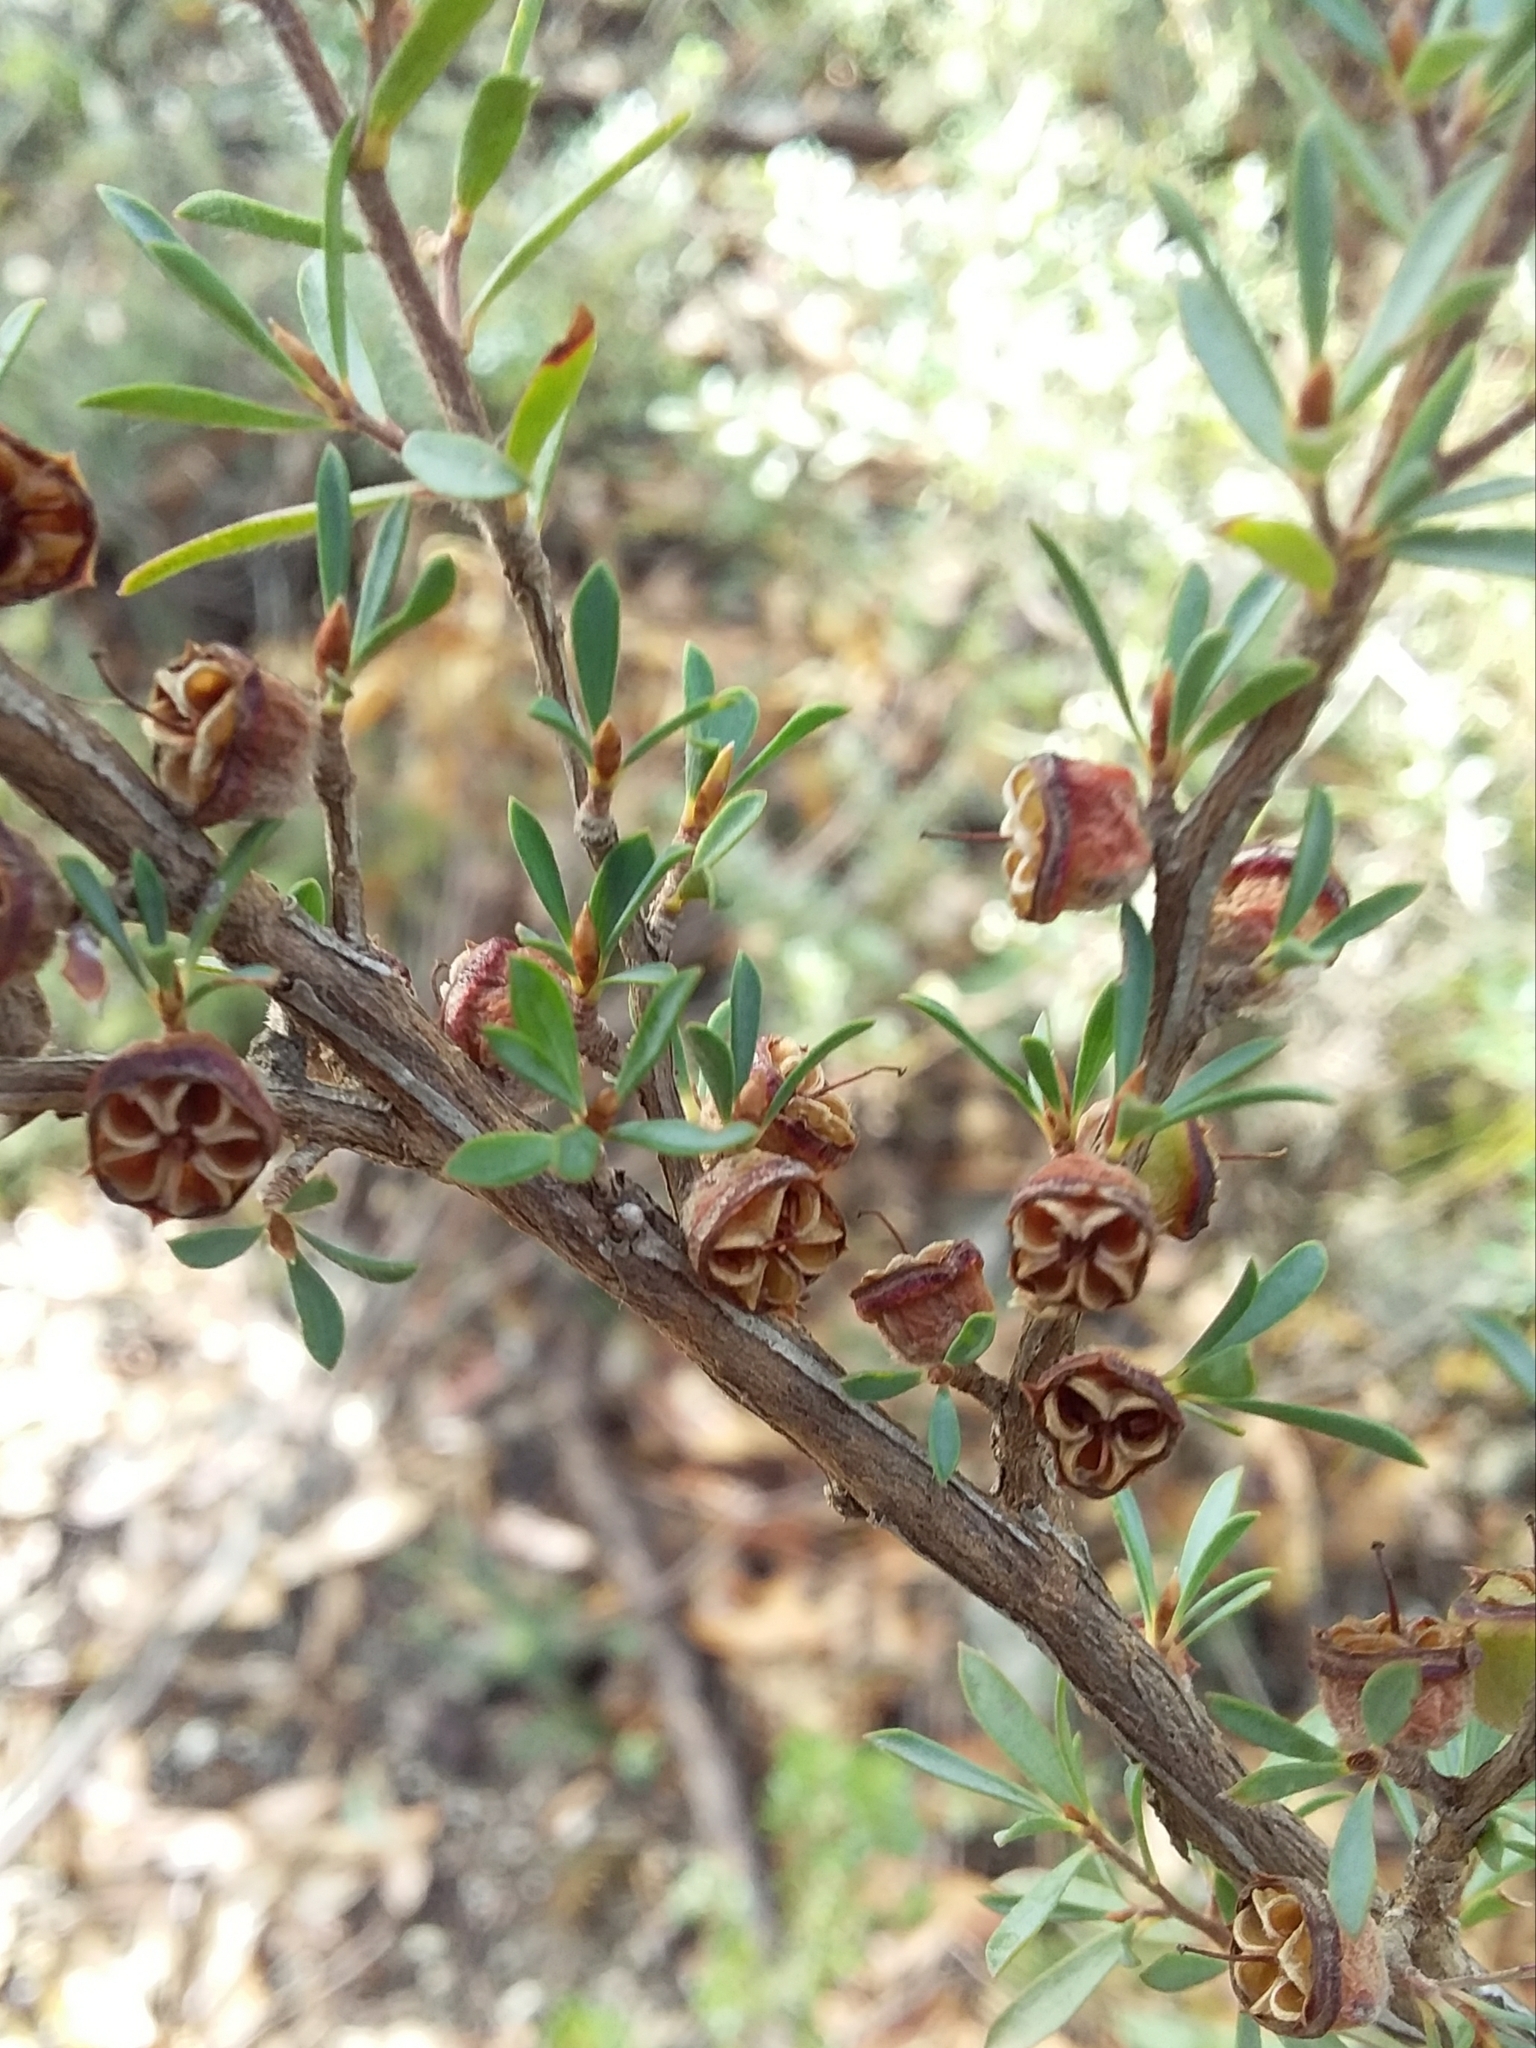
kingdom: Plantae
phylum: Tracheophyta
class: Magnoliopsida
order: Myrtales
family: Myrtaceae
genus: Leptospermum
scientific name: Leptospermum myrsinoides
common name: Heath teatree
